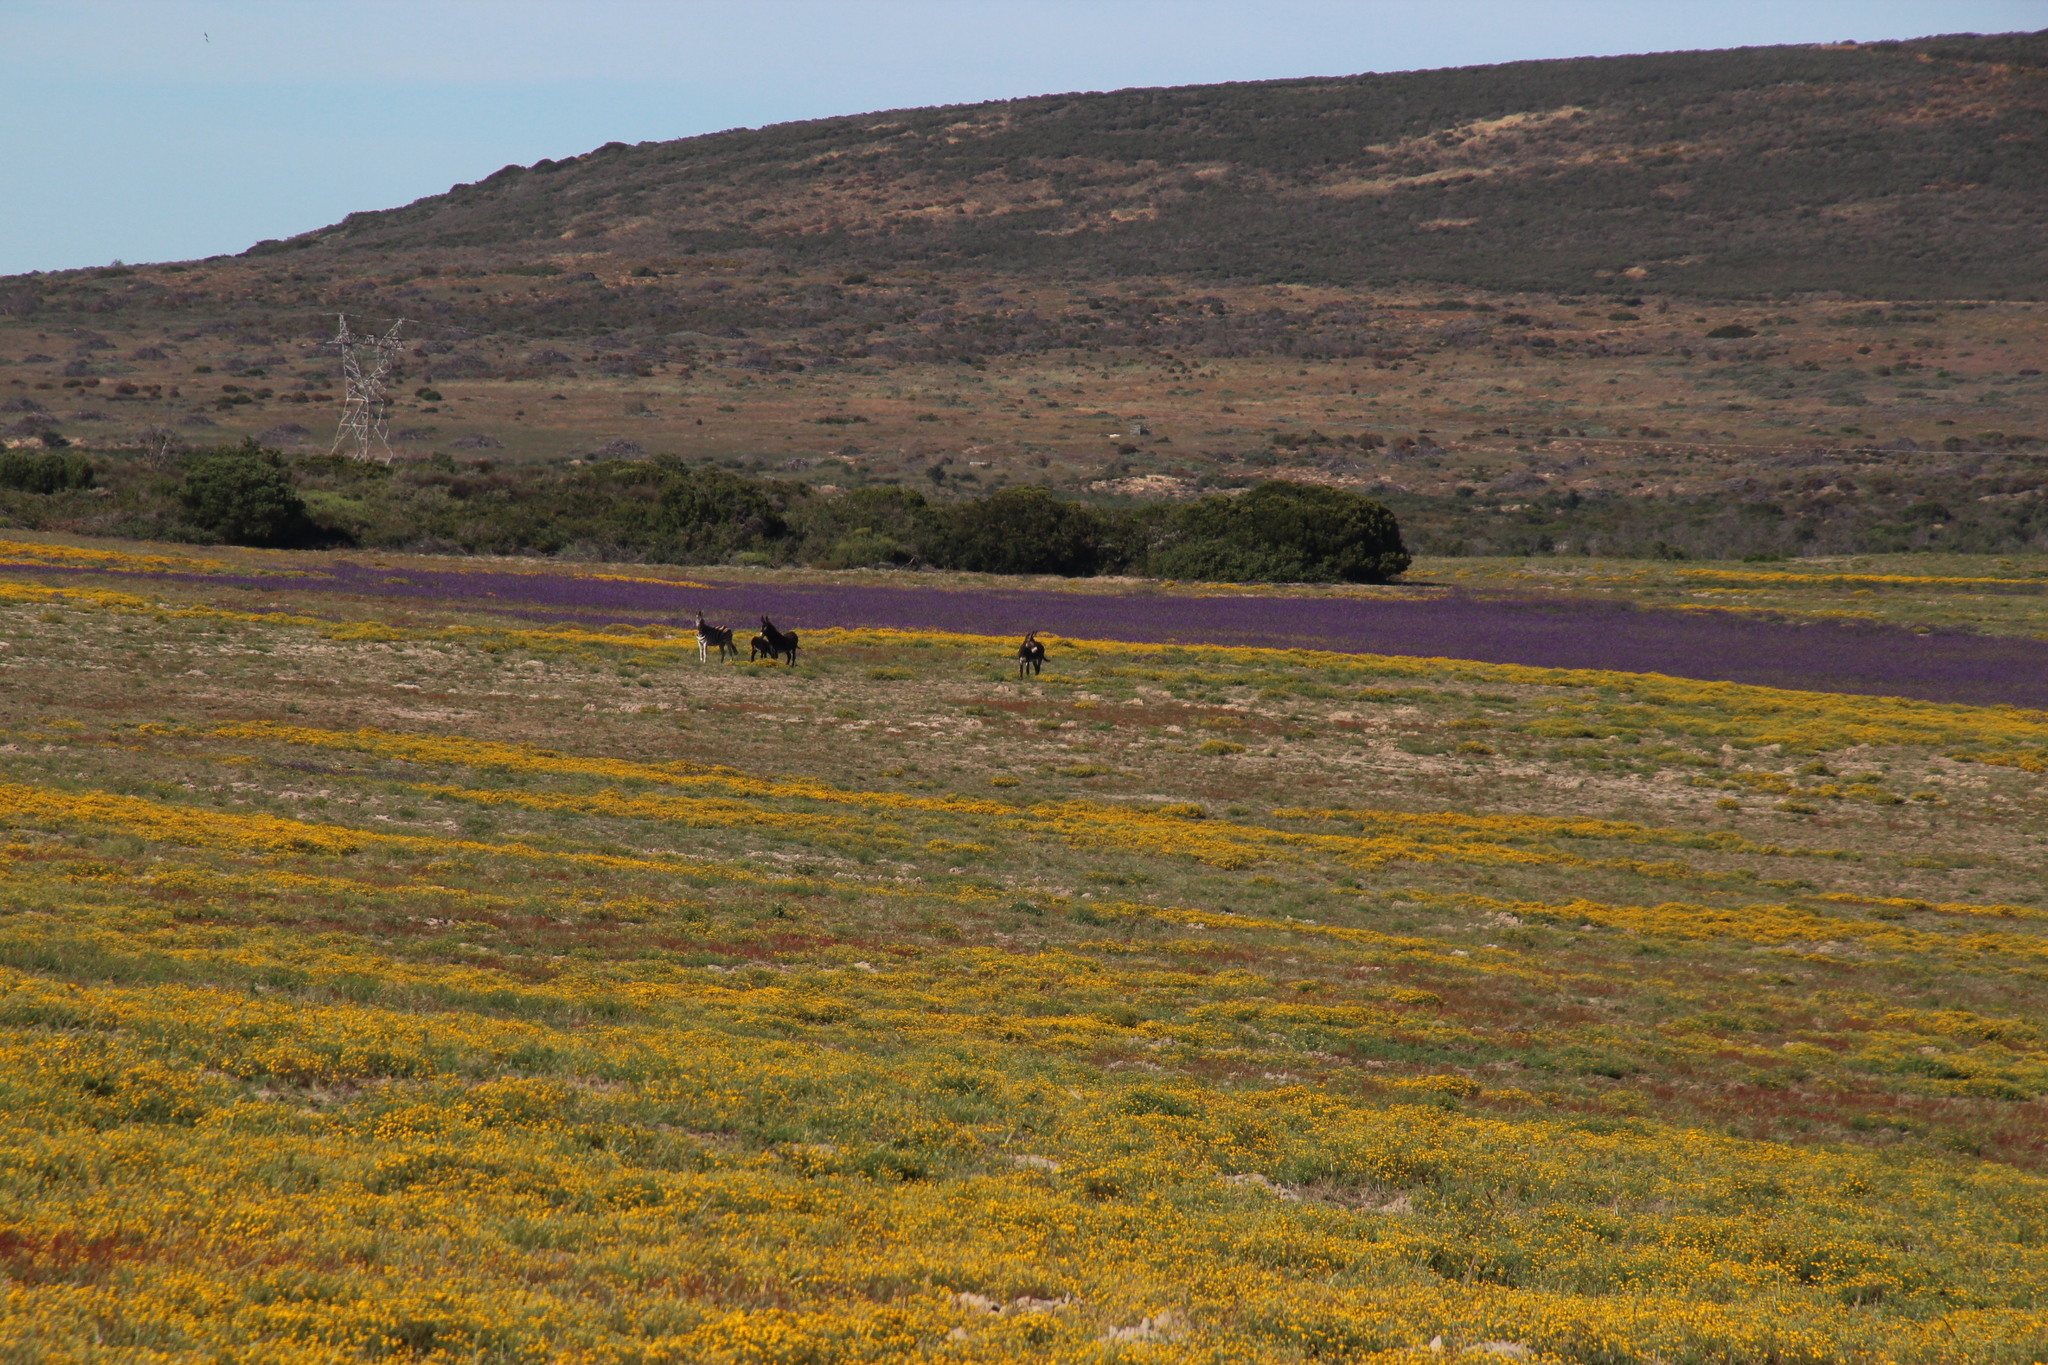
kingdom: Animalia
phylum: Chordata
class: Mammalia
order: Perissodactyla
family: Equidae
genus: Equus
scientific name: Equus quagga
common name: Plains zebra
